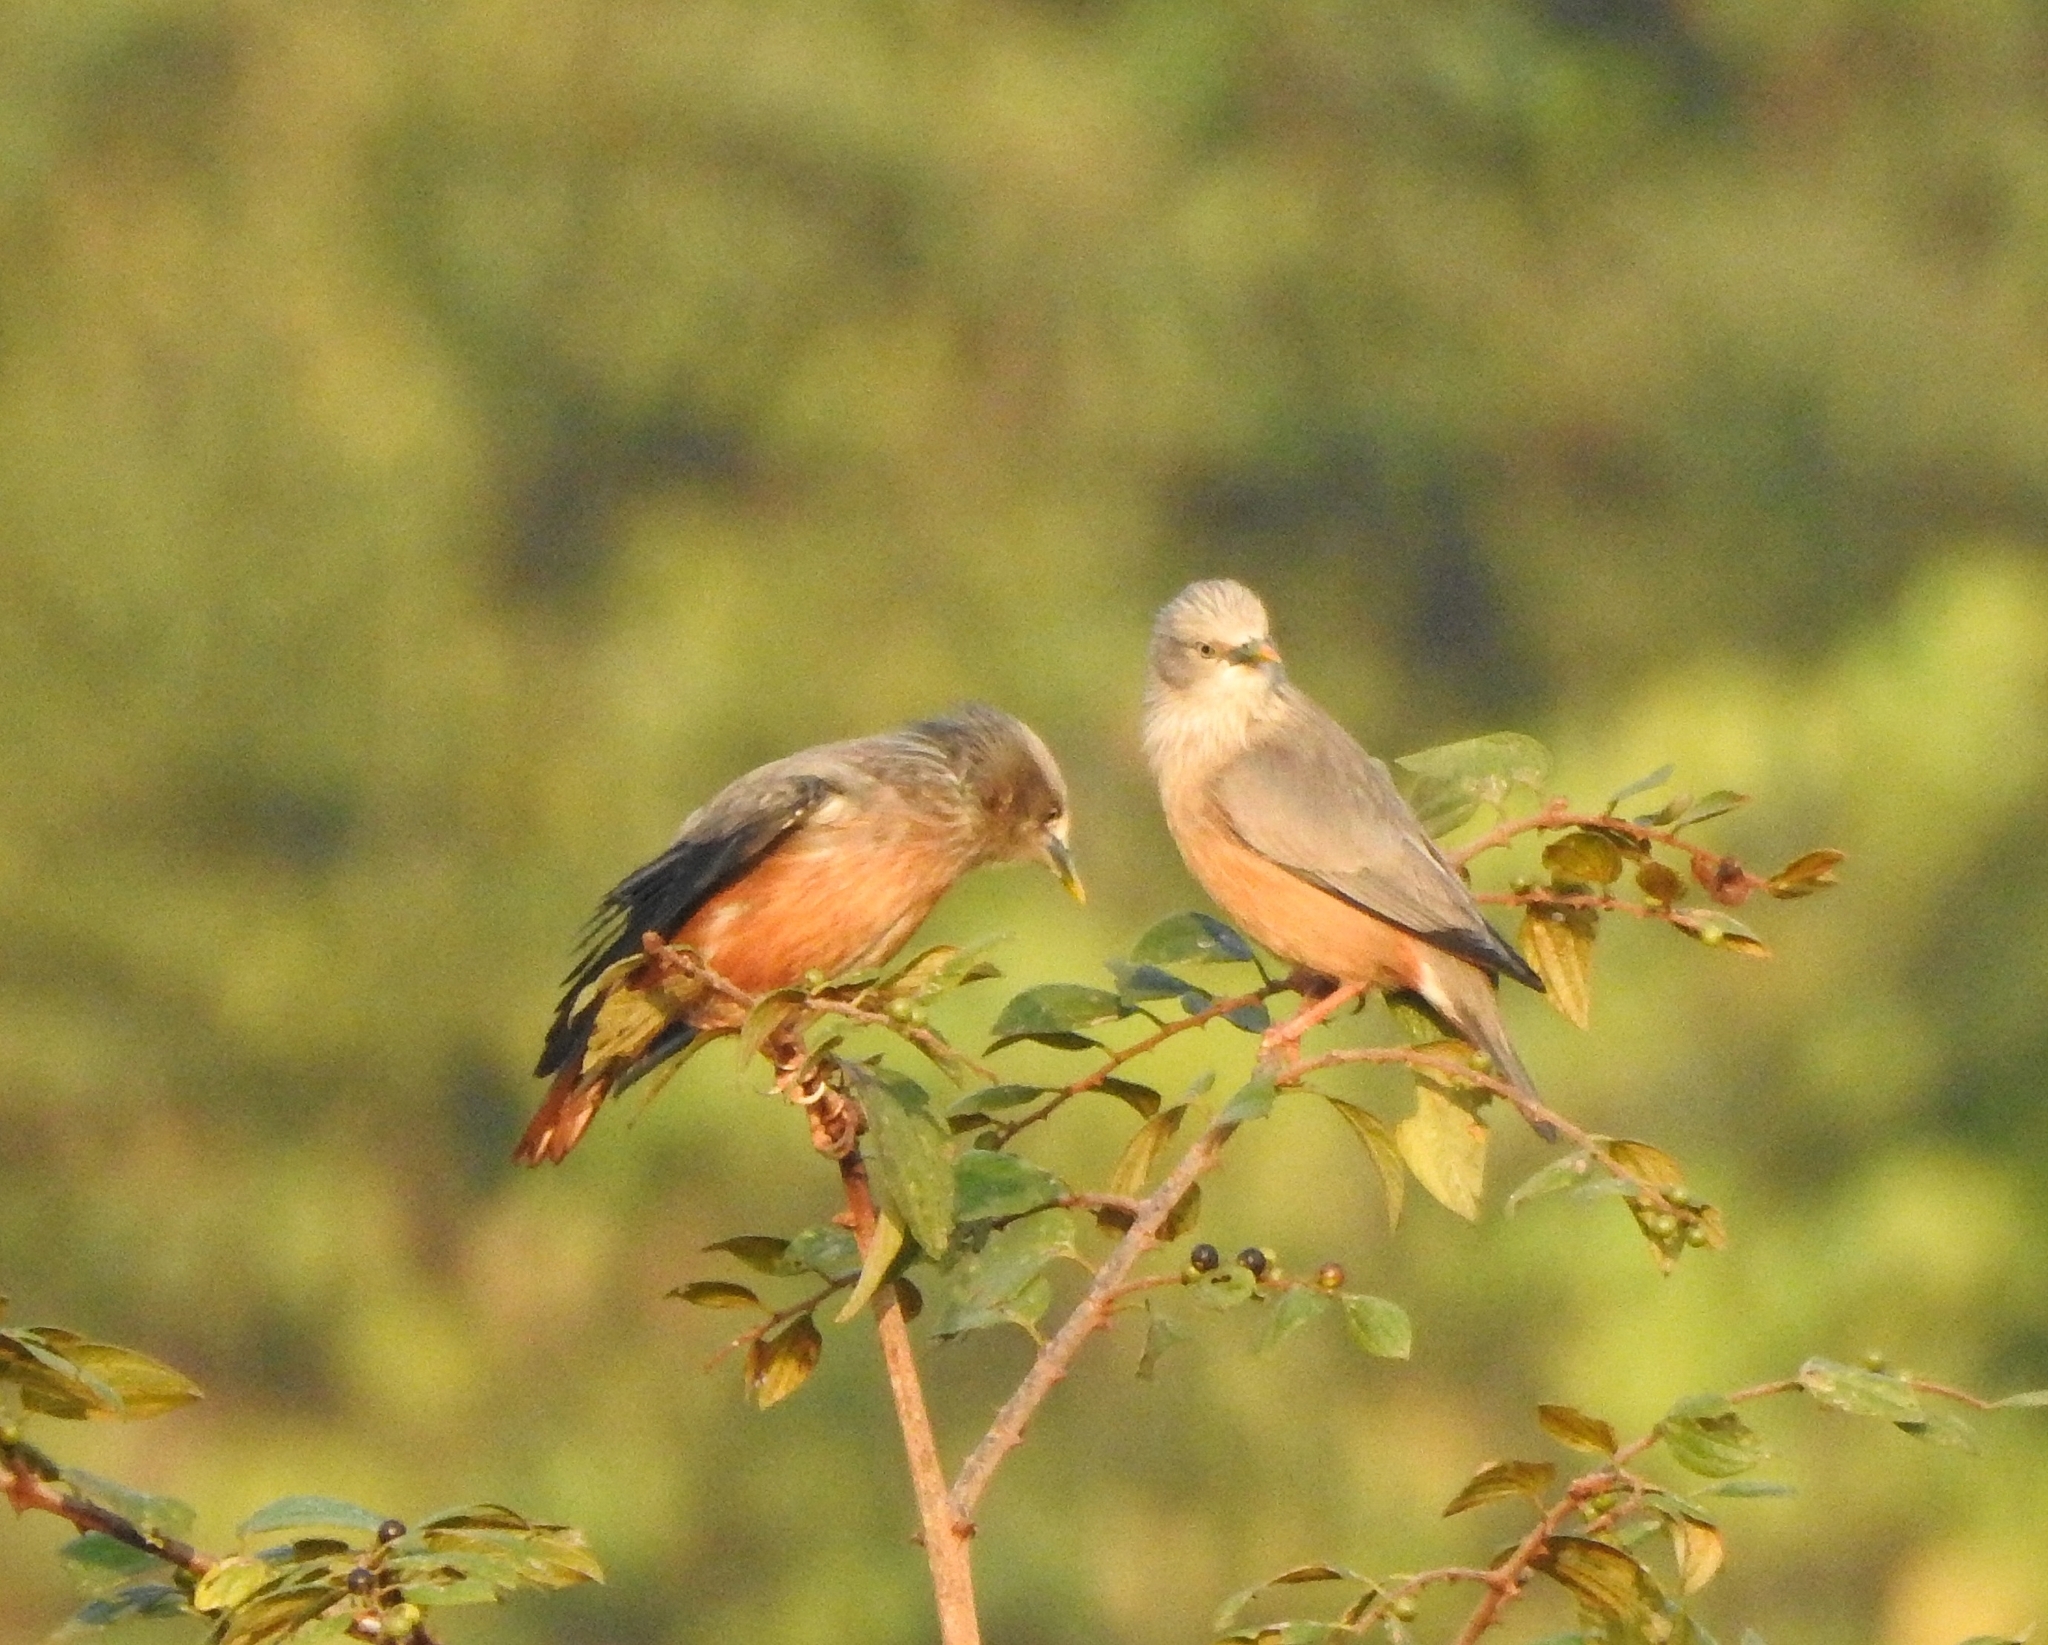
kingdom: Animalia
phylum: Chordata
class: Aves
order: Passeriformes
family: Sturnidae
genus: Sturnia
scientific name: Sturnia malabarica
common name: Chestnut-tailed starling
